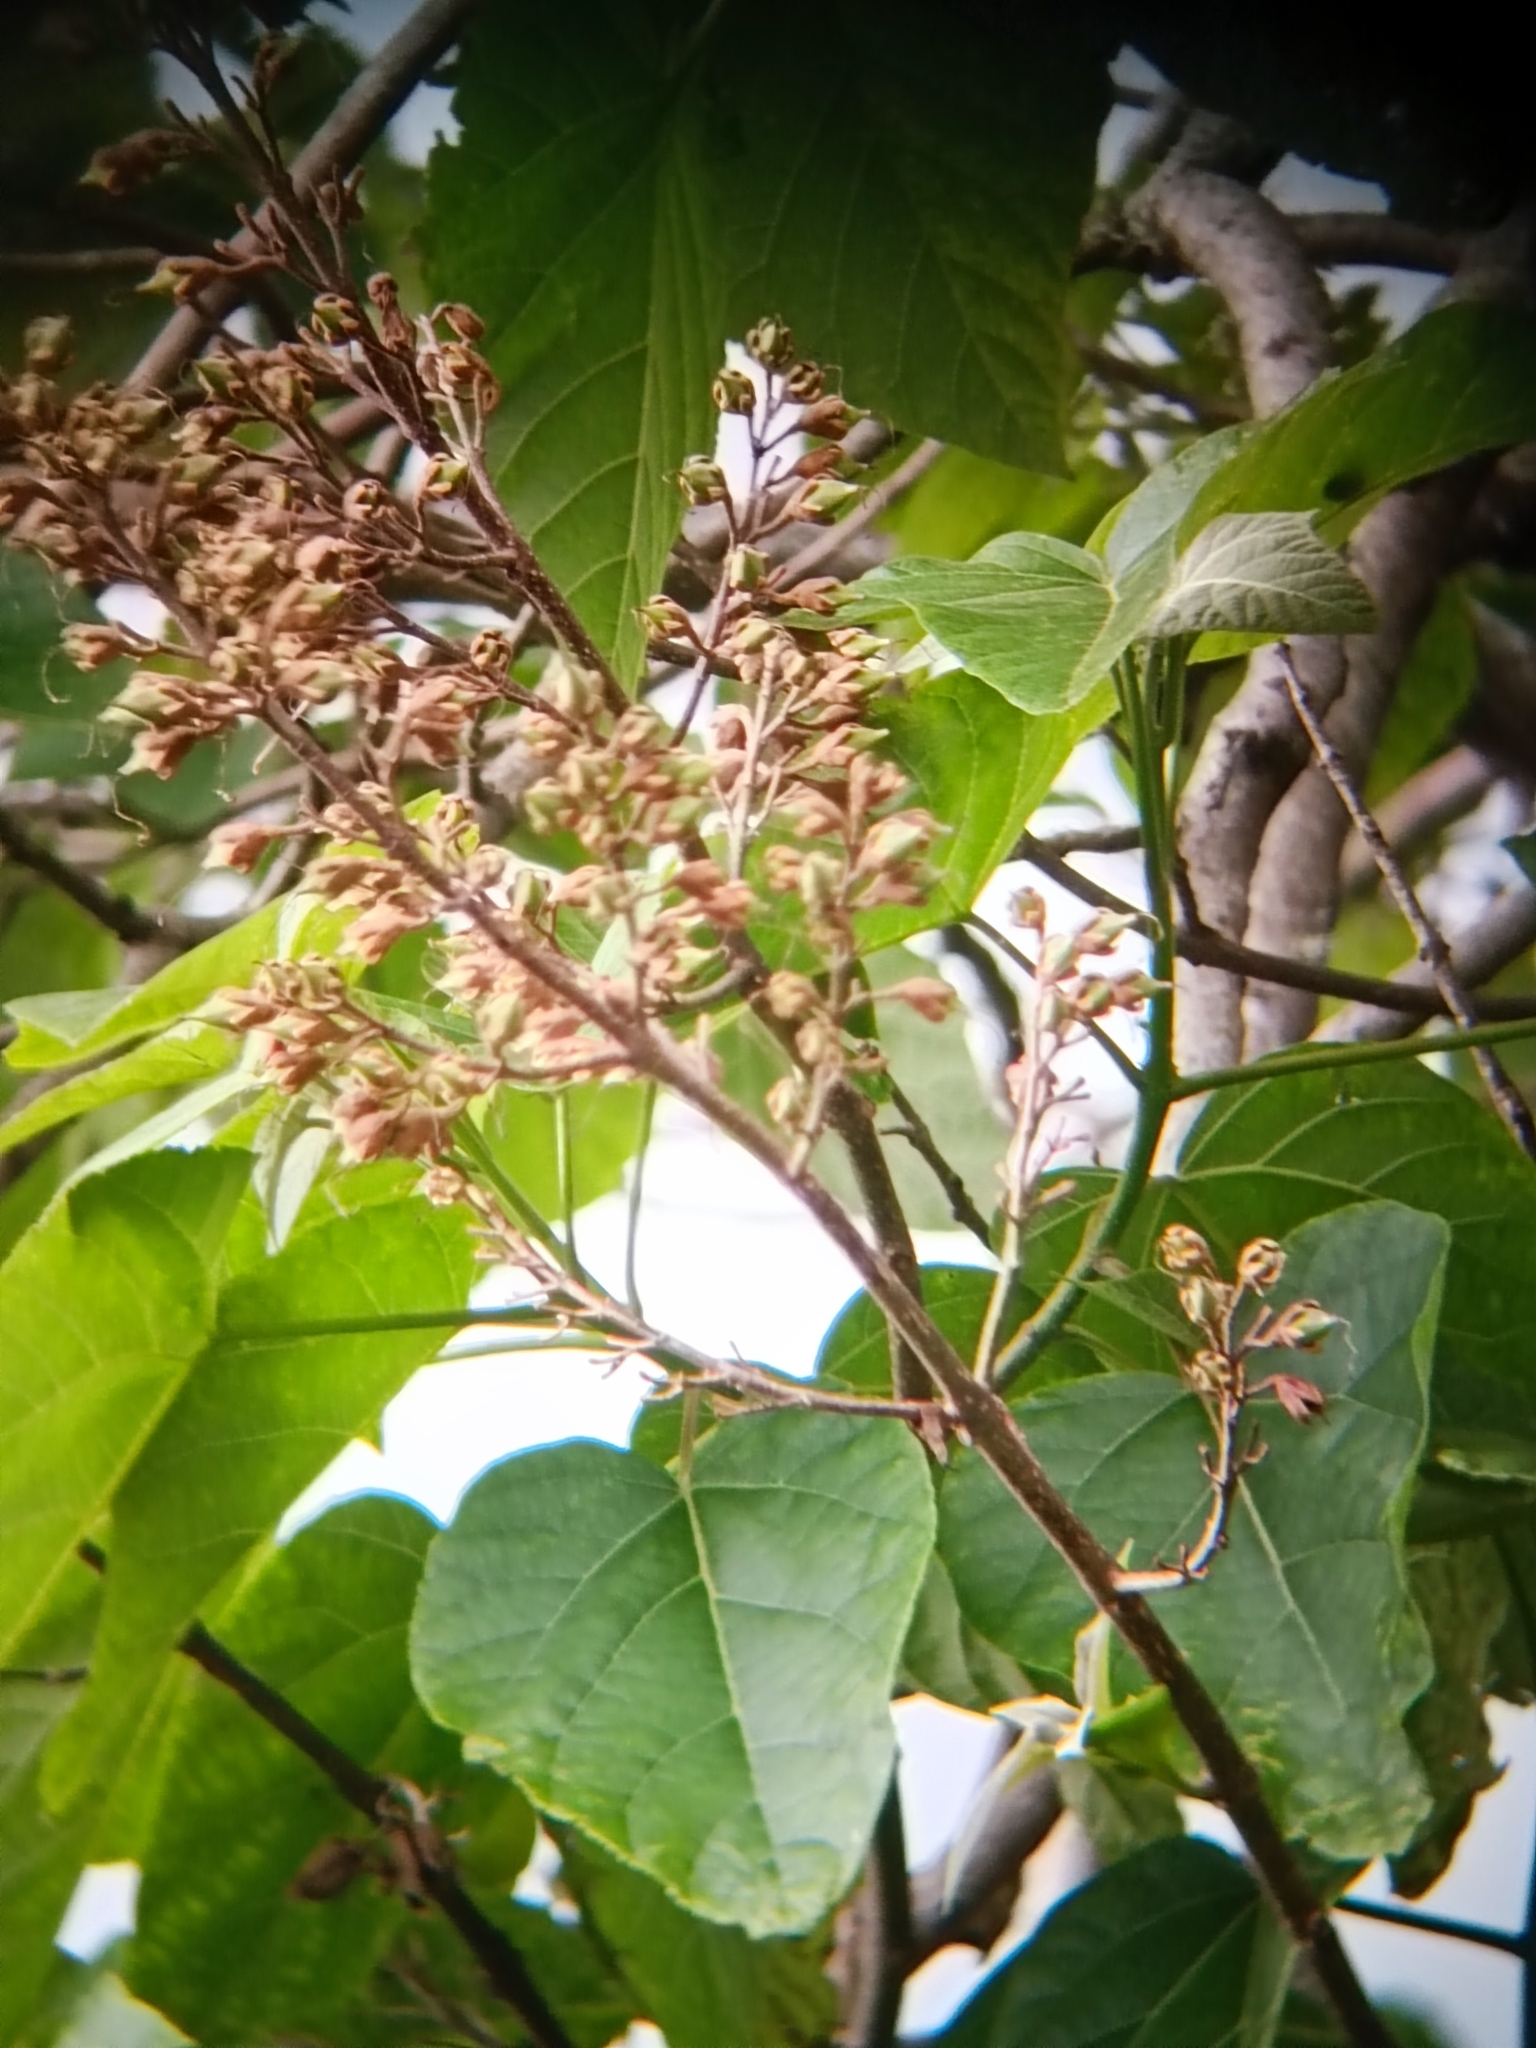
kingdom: Plantae
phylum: Tracheophyta
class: Magnoliopsida
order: Lamiales
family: Paulowniaceae
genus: Paulownia
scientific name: Paulownia tomentosa
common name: Foxglove-tree
